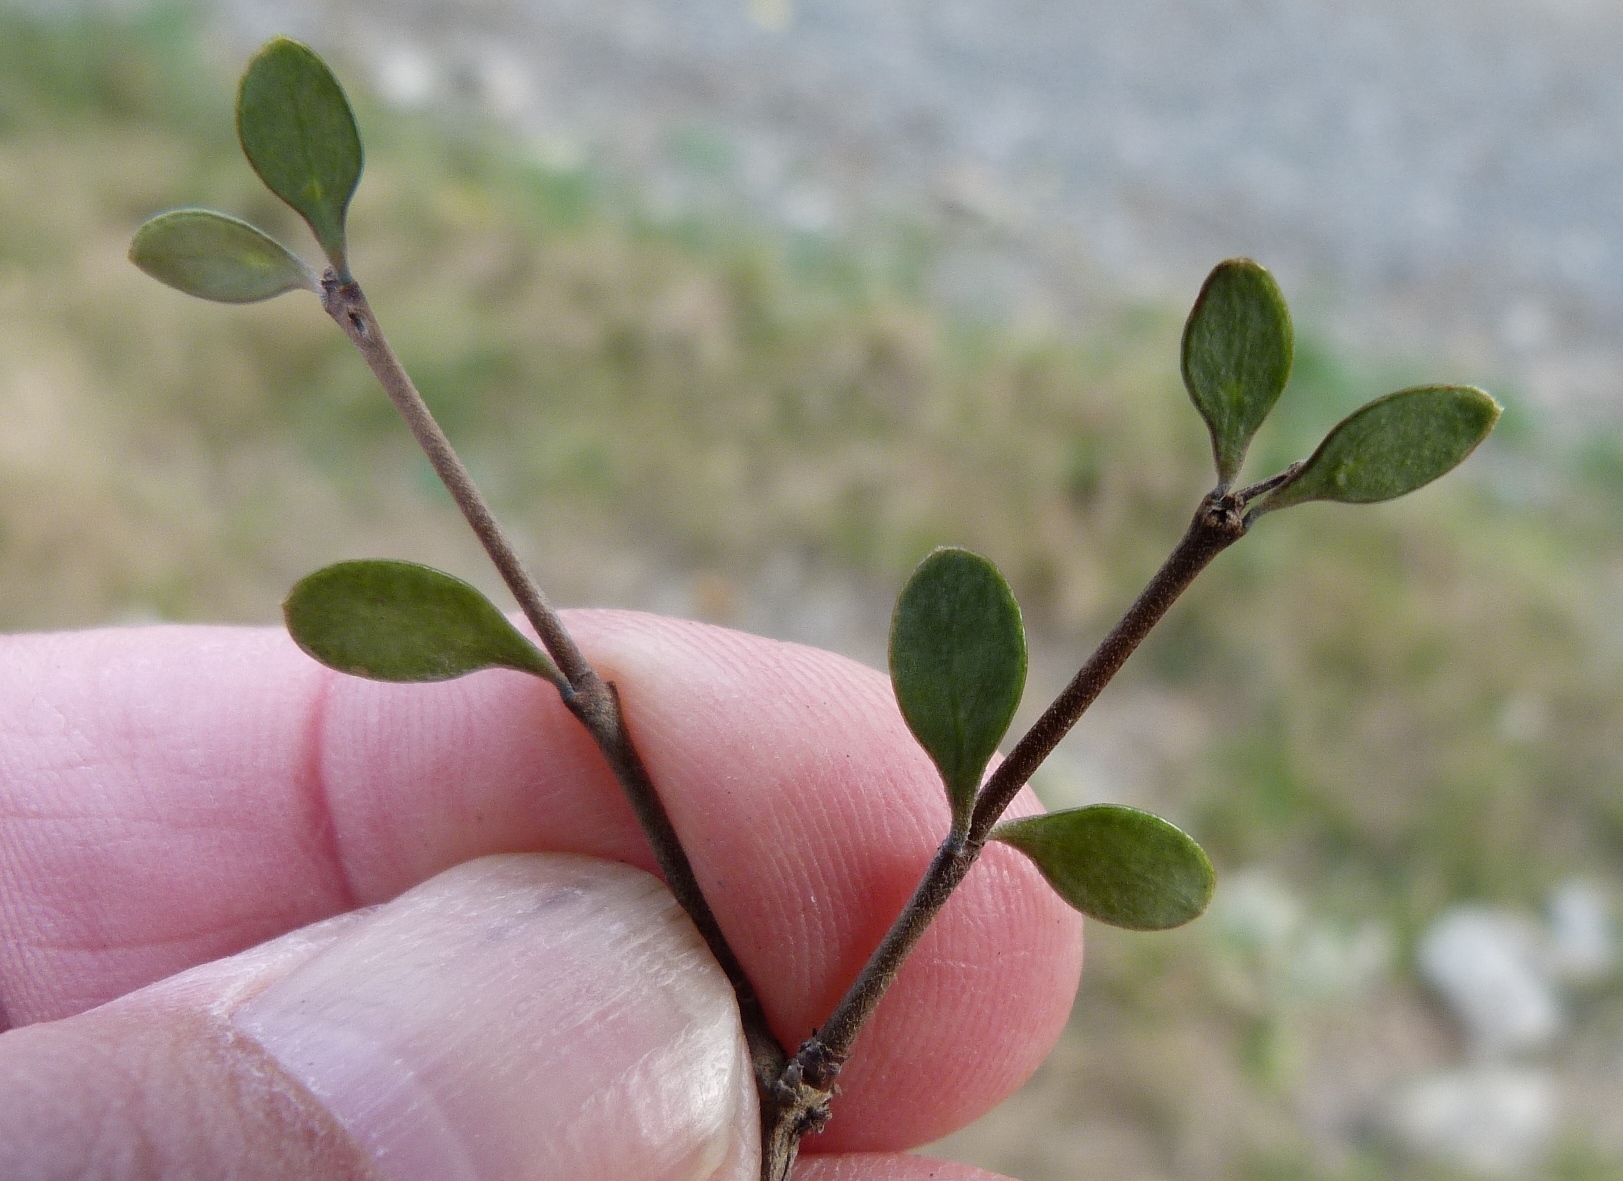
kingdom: Plantae
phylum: Tracheophyta
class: Magnoliopsida
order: Gentianales
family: Rubiaceae
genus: Coprosma
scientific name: Coprosma rigida
